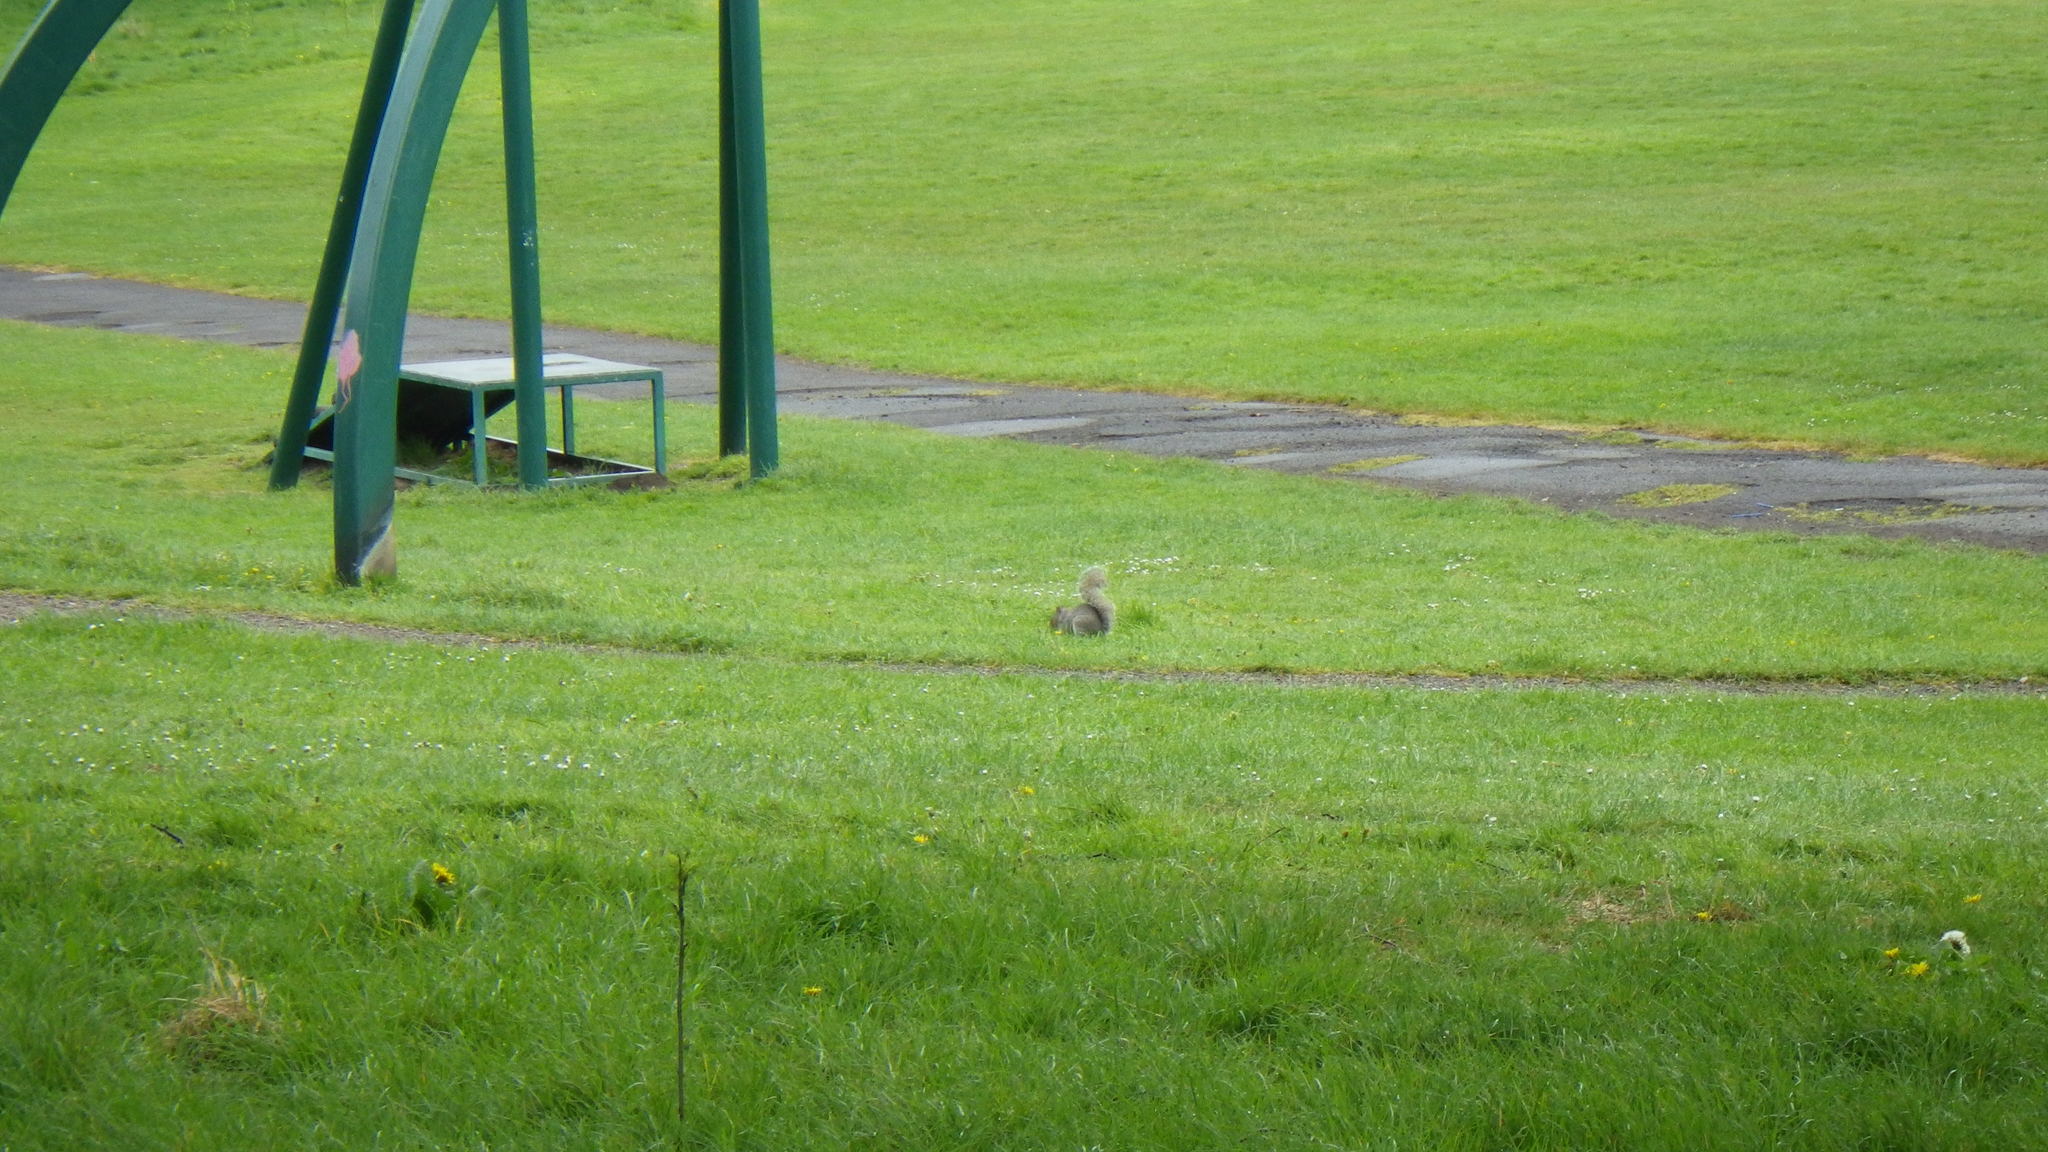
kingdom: Animalia
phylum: Chordata
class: Mammalia
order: Rodentia
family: Sciuridae
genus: Sciurus
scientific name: Sciurus carolinensis
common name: Eastern gray squirrel
